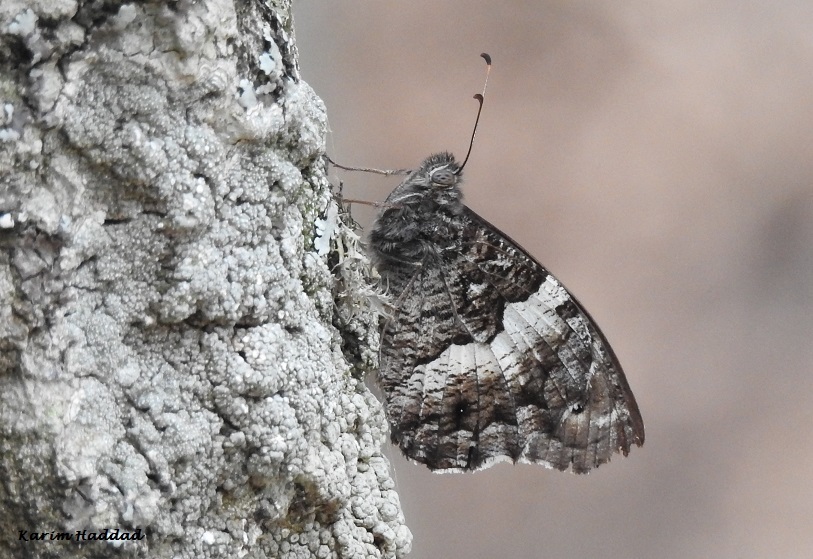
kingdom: Animalia
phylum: Arthropoda
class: Insecta
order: Lepidoptera
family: Nymphalidae
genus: Hipparchia
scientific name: Hipparchia ellena
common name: Algerian grayling
